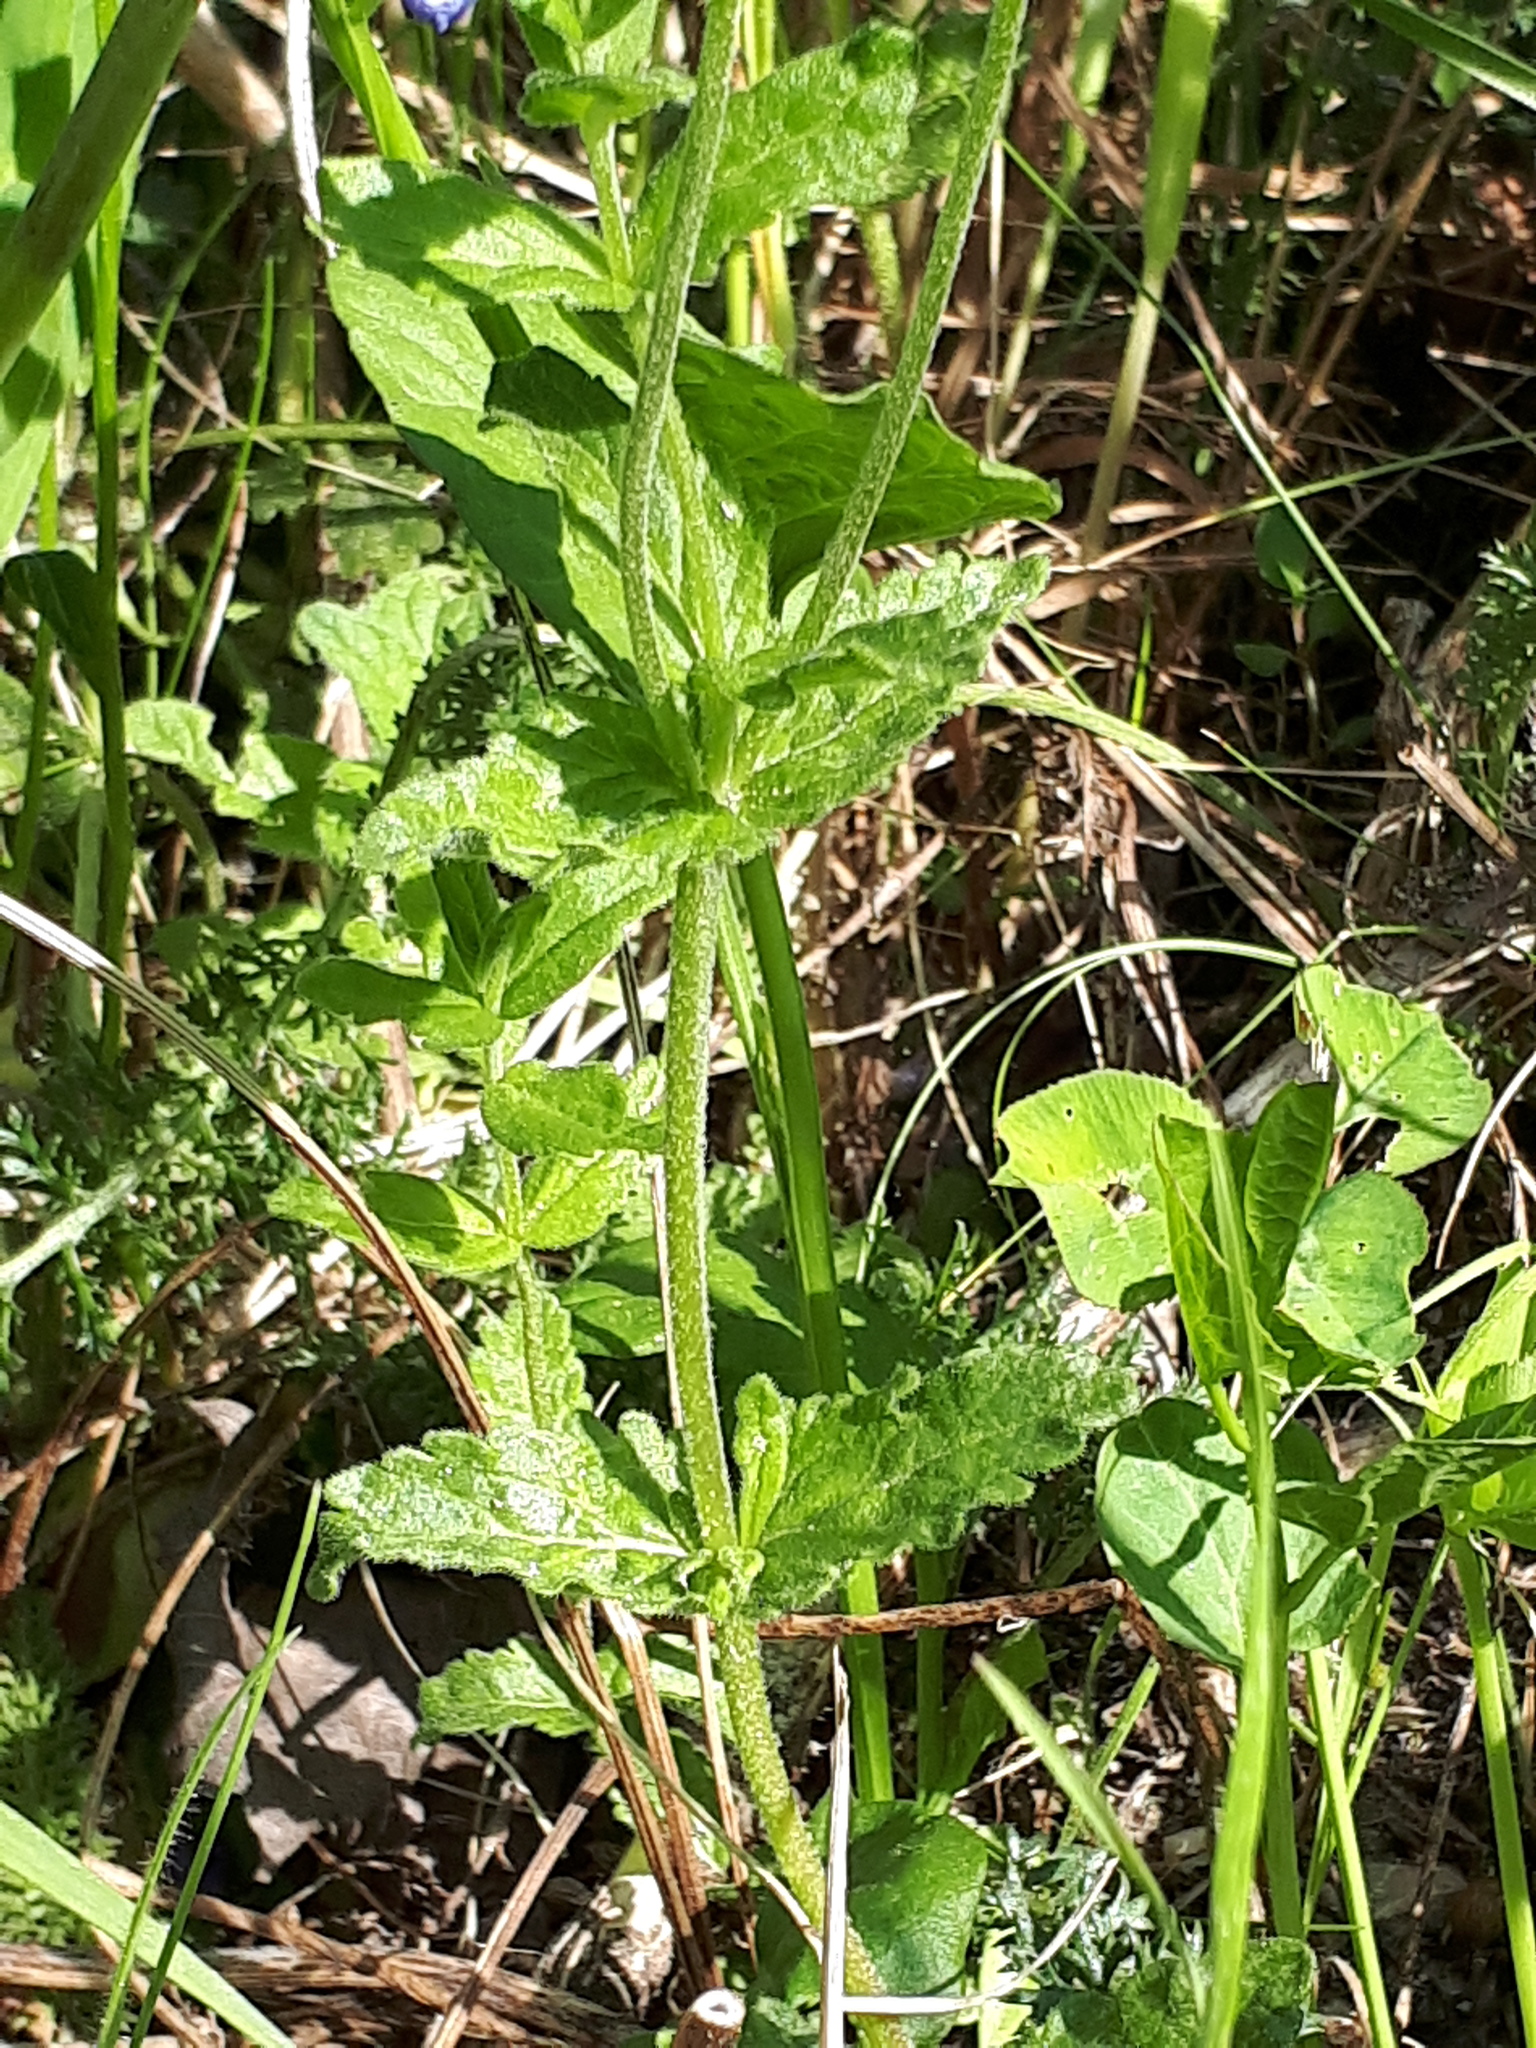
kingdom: Plantae
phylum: Tracheophyta
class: Magnoliopsida
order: Lamiales
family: Plantaginaceae
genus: Veronica
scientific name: Veronica teucrium
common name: Large speedwell
